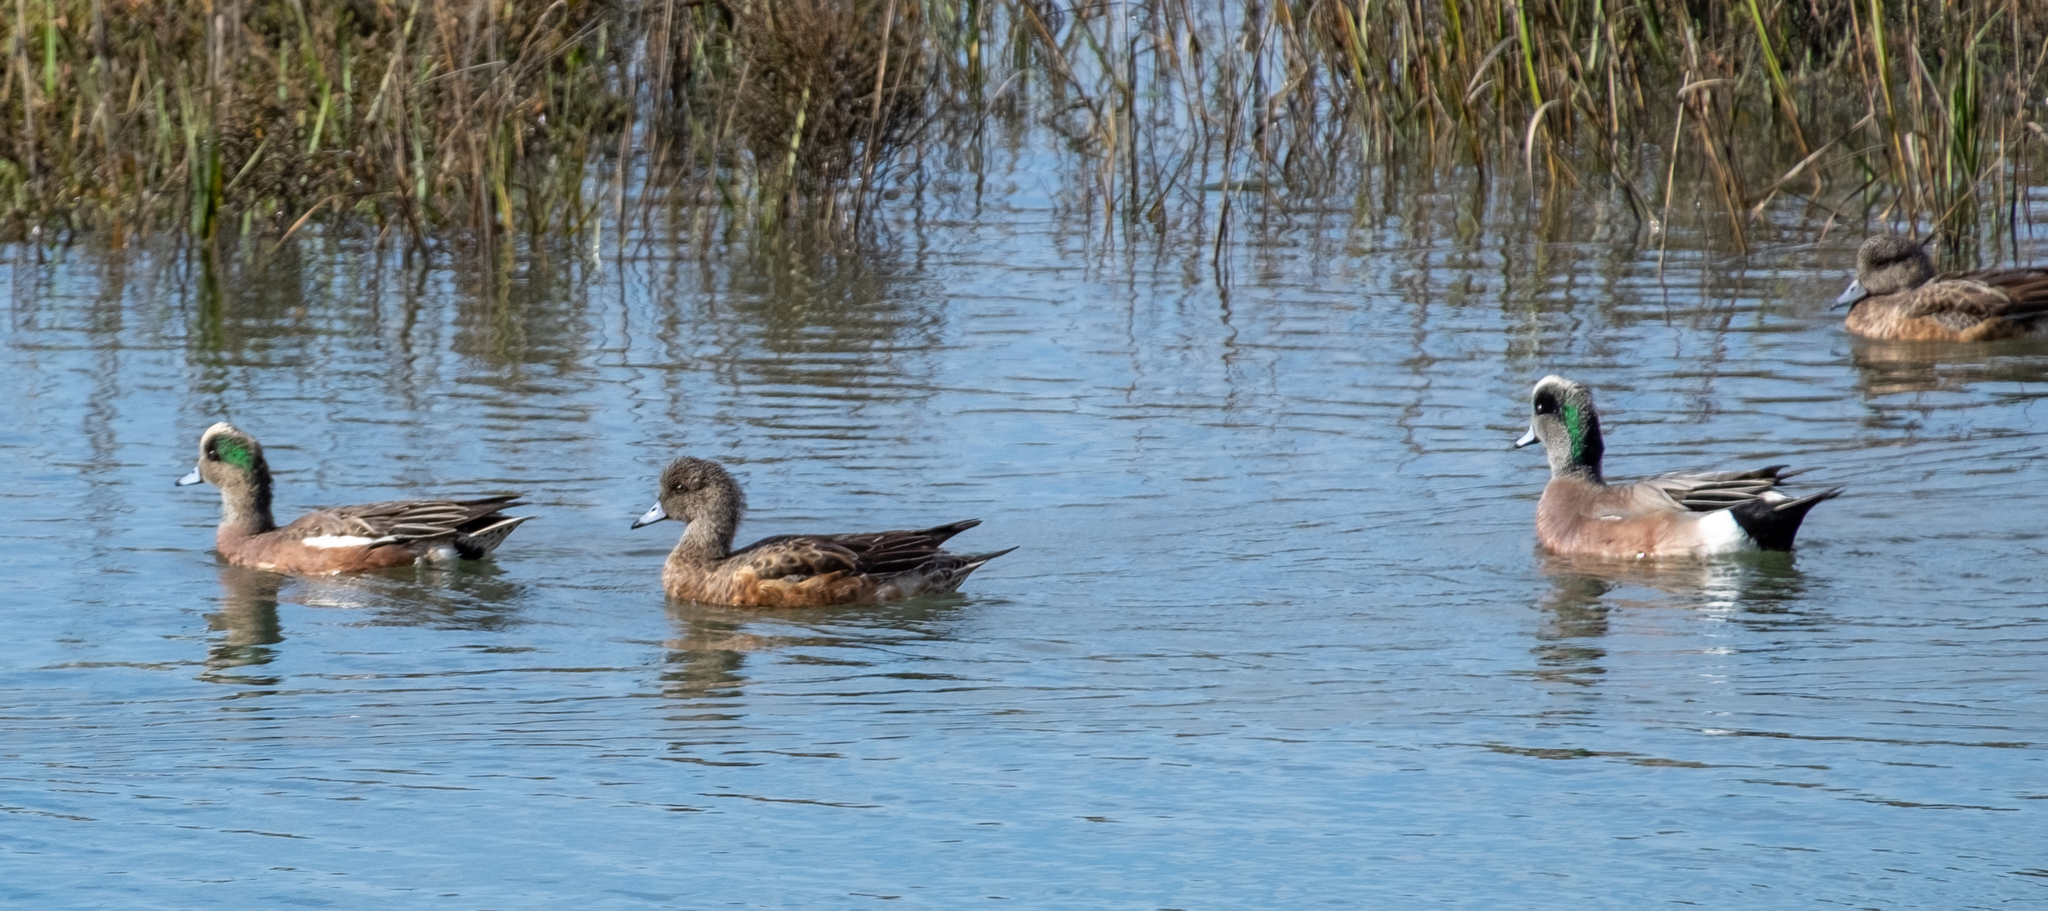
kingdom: Animalia
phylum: Chordata
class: Aves
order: Anseriformes
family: Anatidae
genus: Mareca
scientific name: Mareca americana
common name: American wigeon
